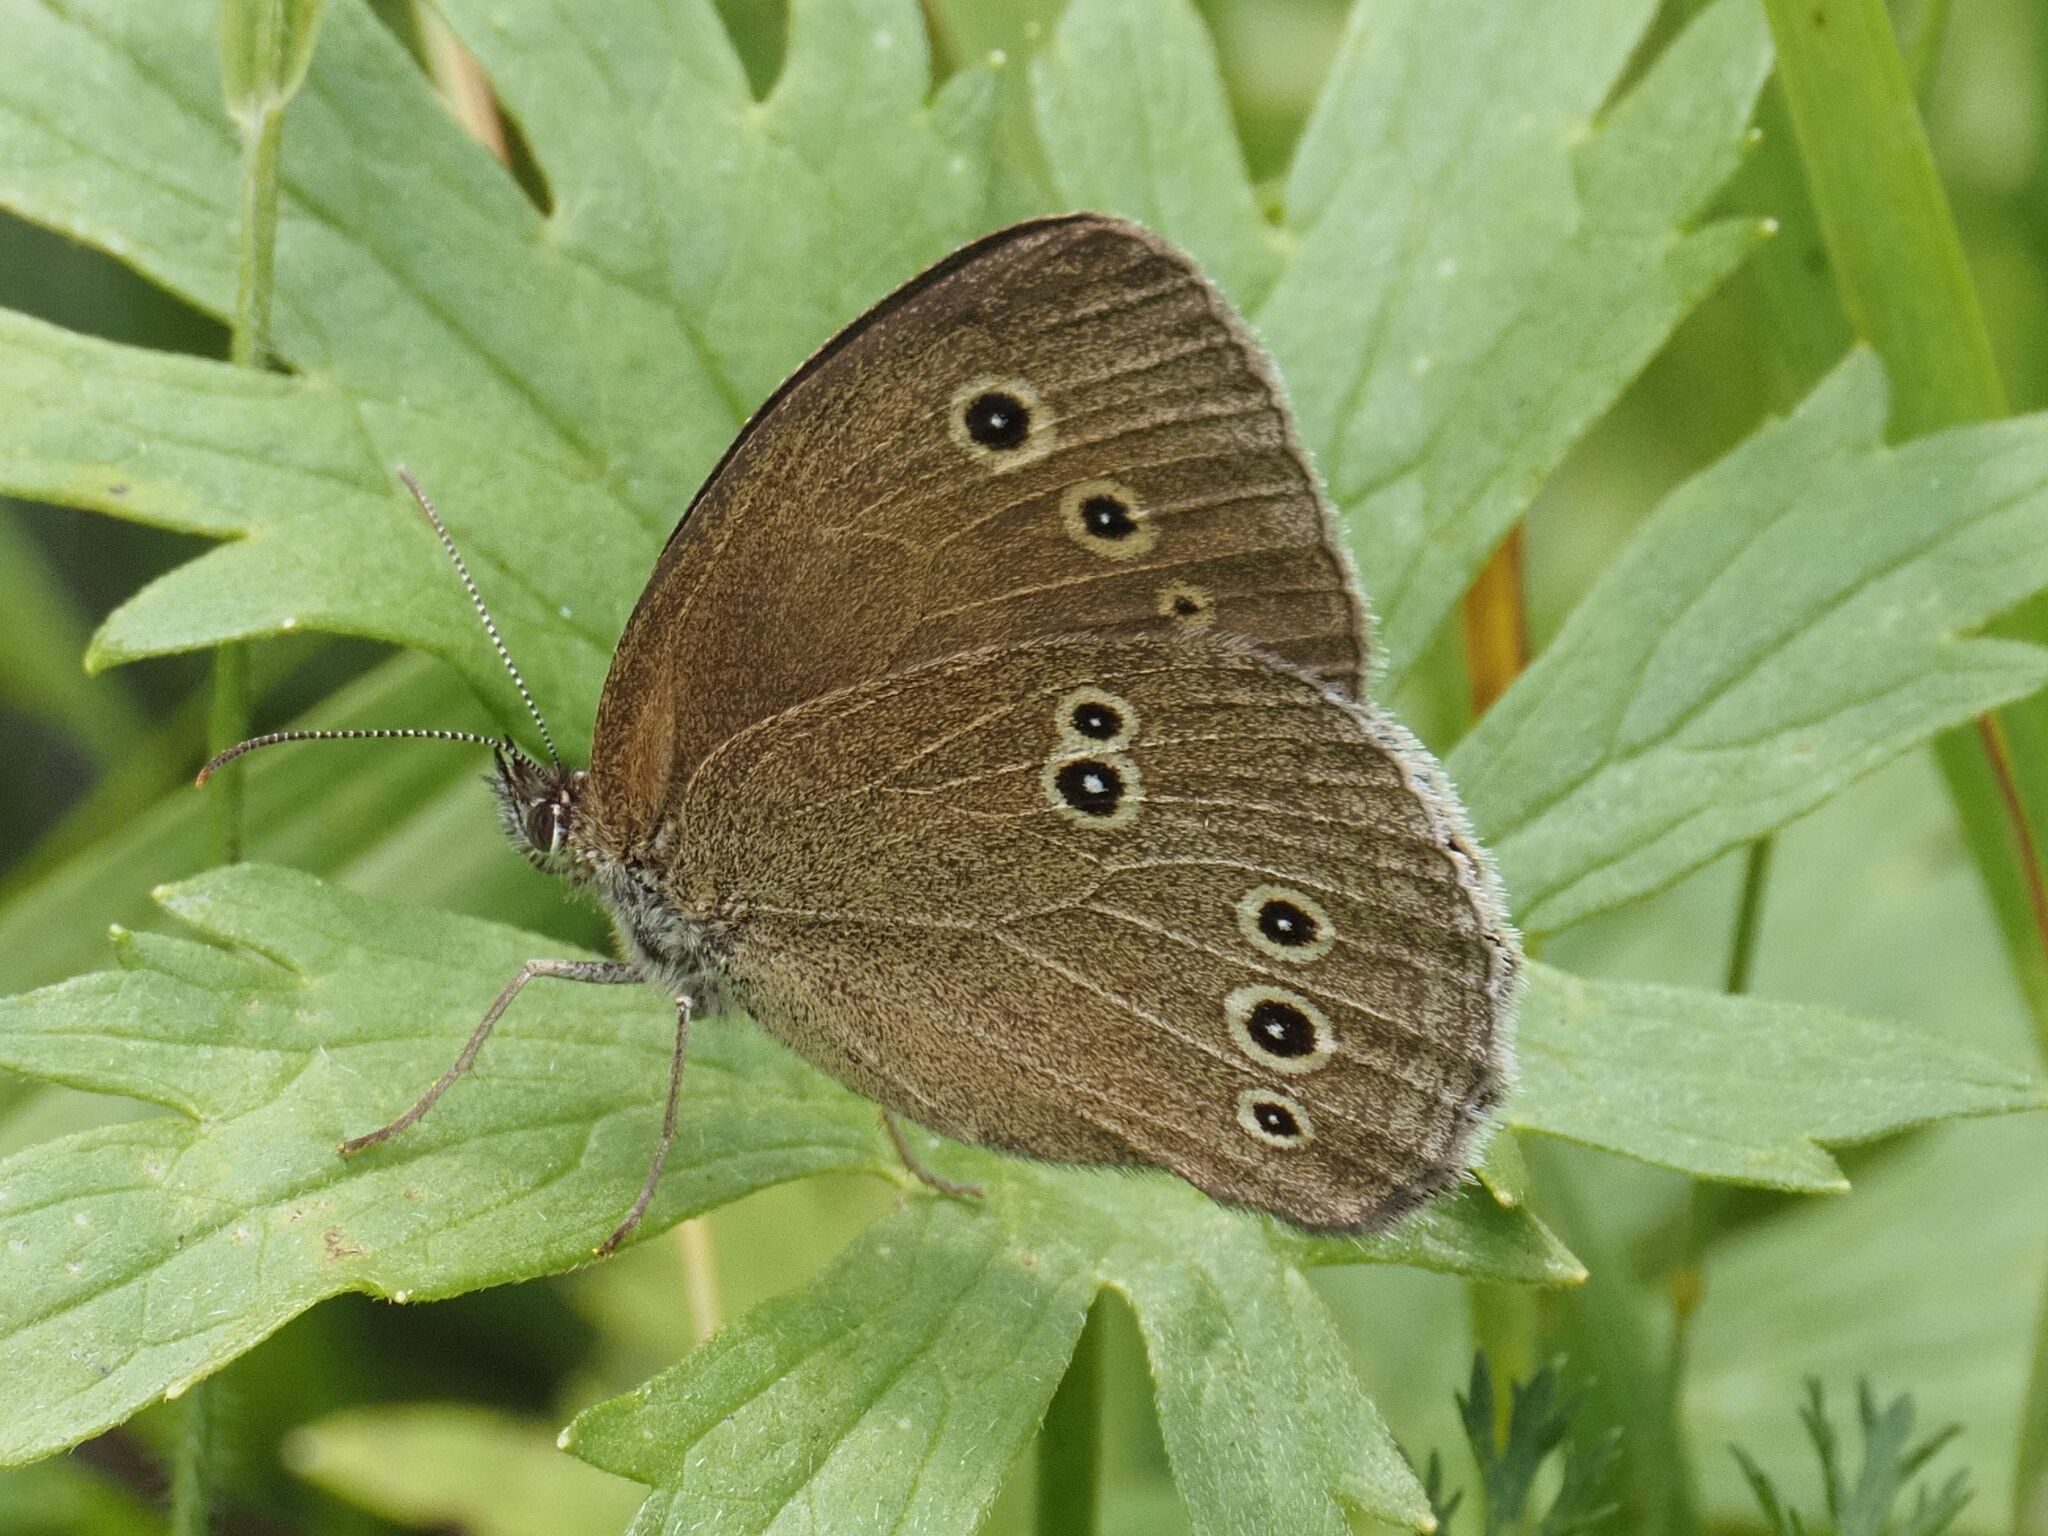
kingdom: Animalia
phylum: Arthropoda
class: Insecta
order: Lepidoptera
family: Nymphalidae
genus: Aphantopus
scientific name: Aphantopus hyperantus
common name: Ringlet
